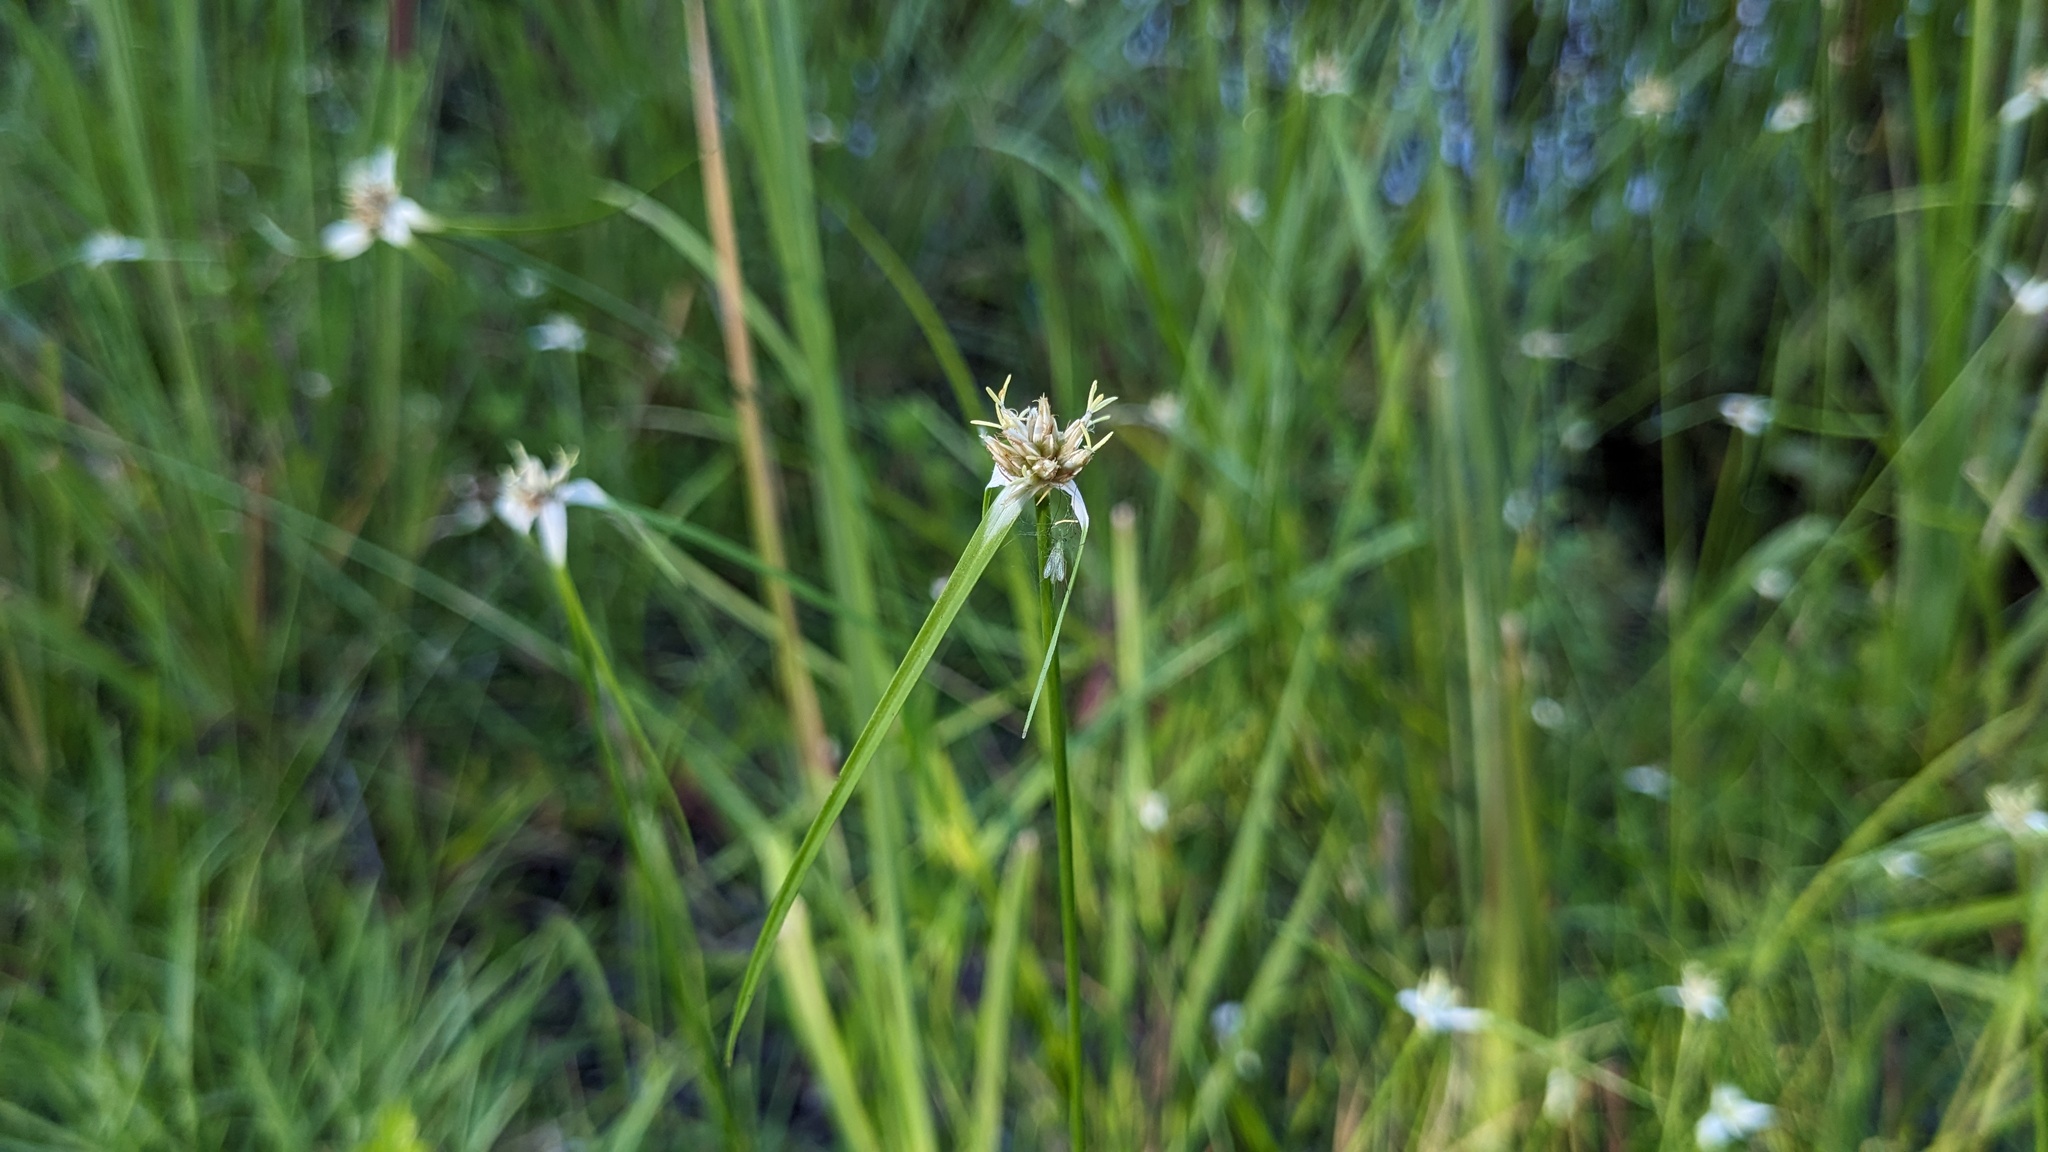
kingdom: Plantae
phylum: Tracheophyta
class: Liliopsida
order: Poales
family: Cyperaceae
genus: Rhynchospora
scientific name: Rhynchospora colorata
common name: Star sedge
